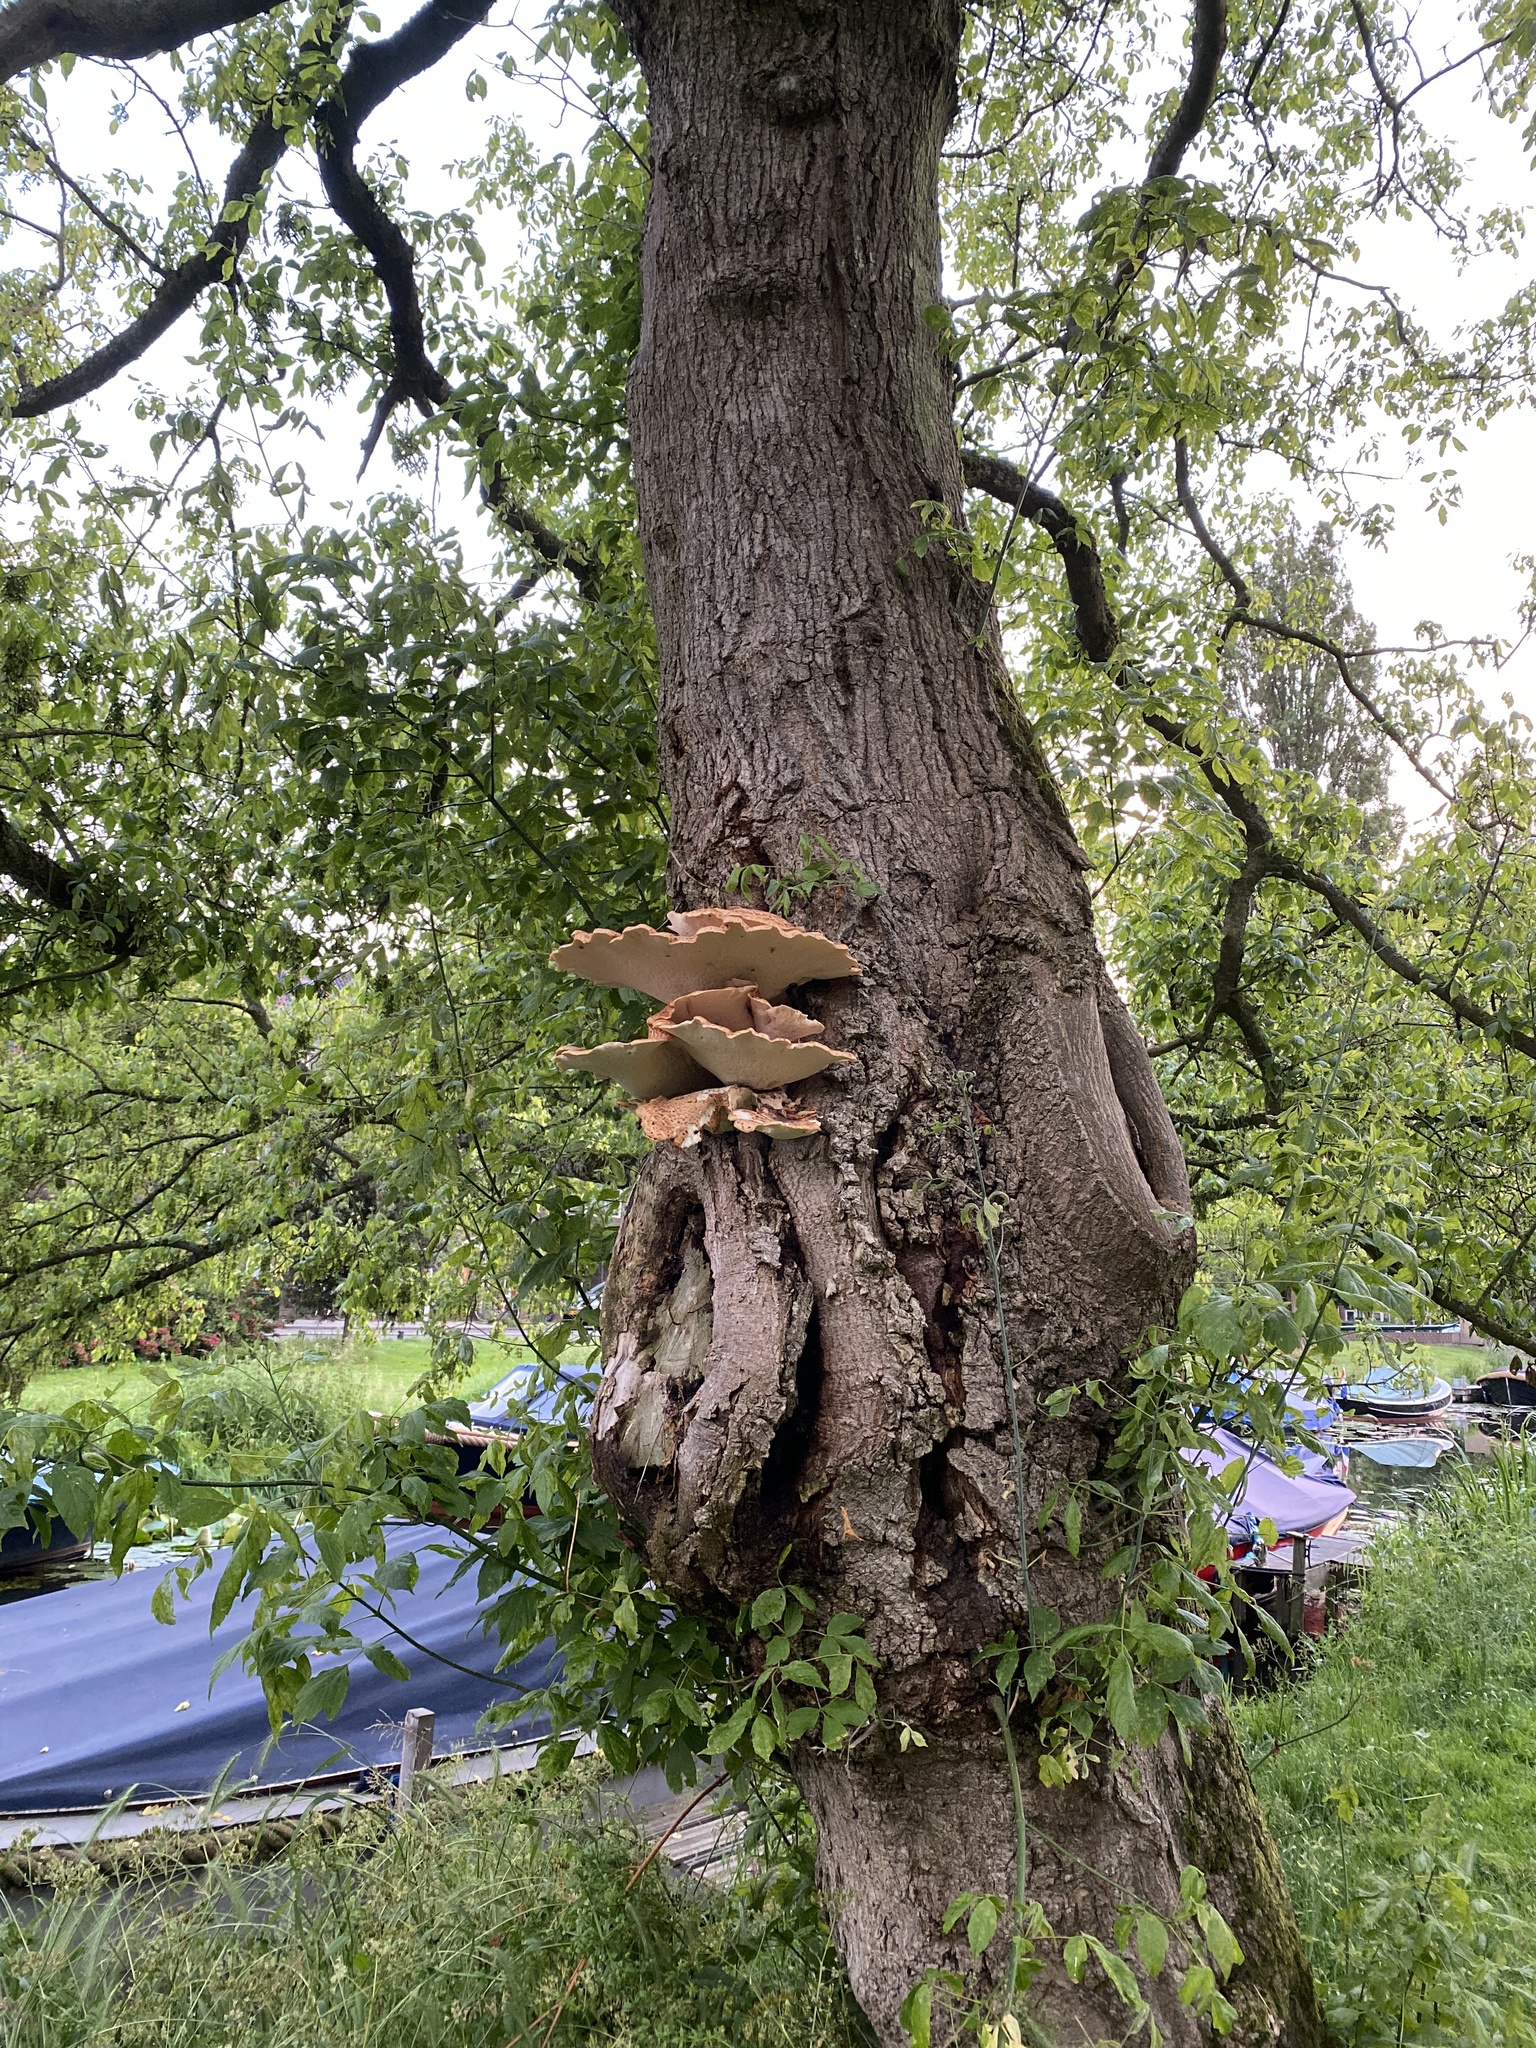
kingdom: Fungi
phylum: Basidiomycota
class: Agaricomycetes
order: Polyporales
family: Polyporaceae
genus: Cerioporus
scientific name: Cerioporus squamosus
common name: Dryad's saddle
